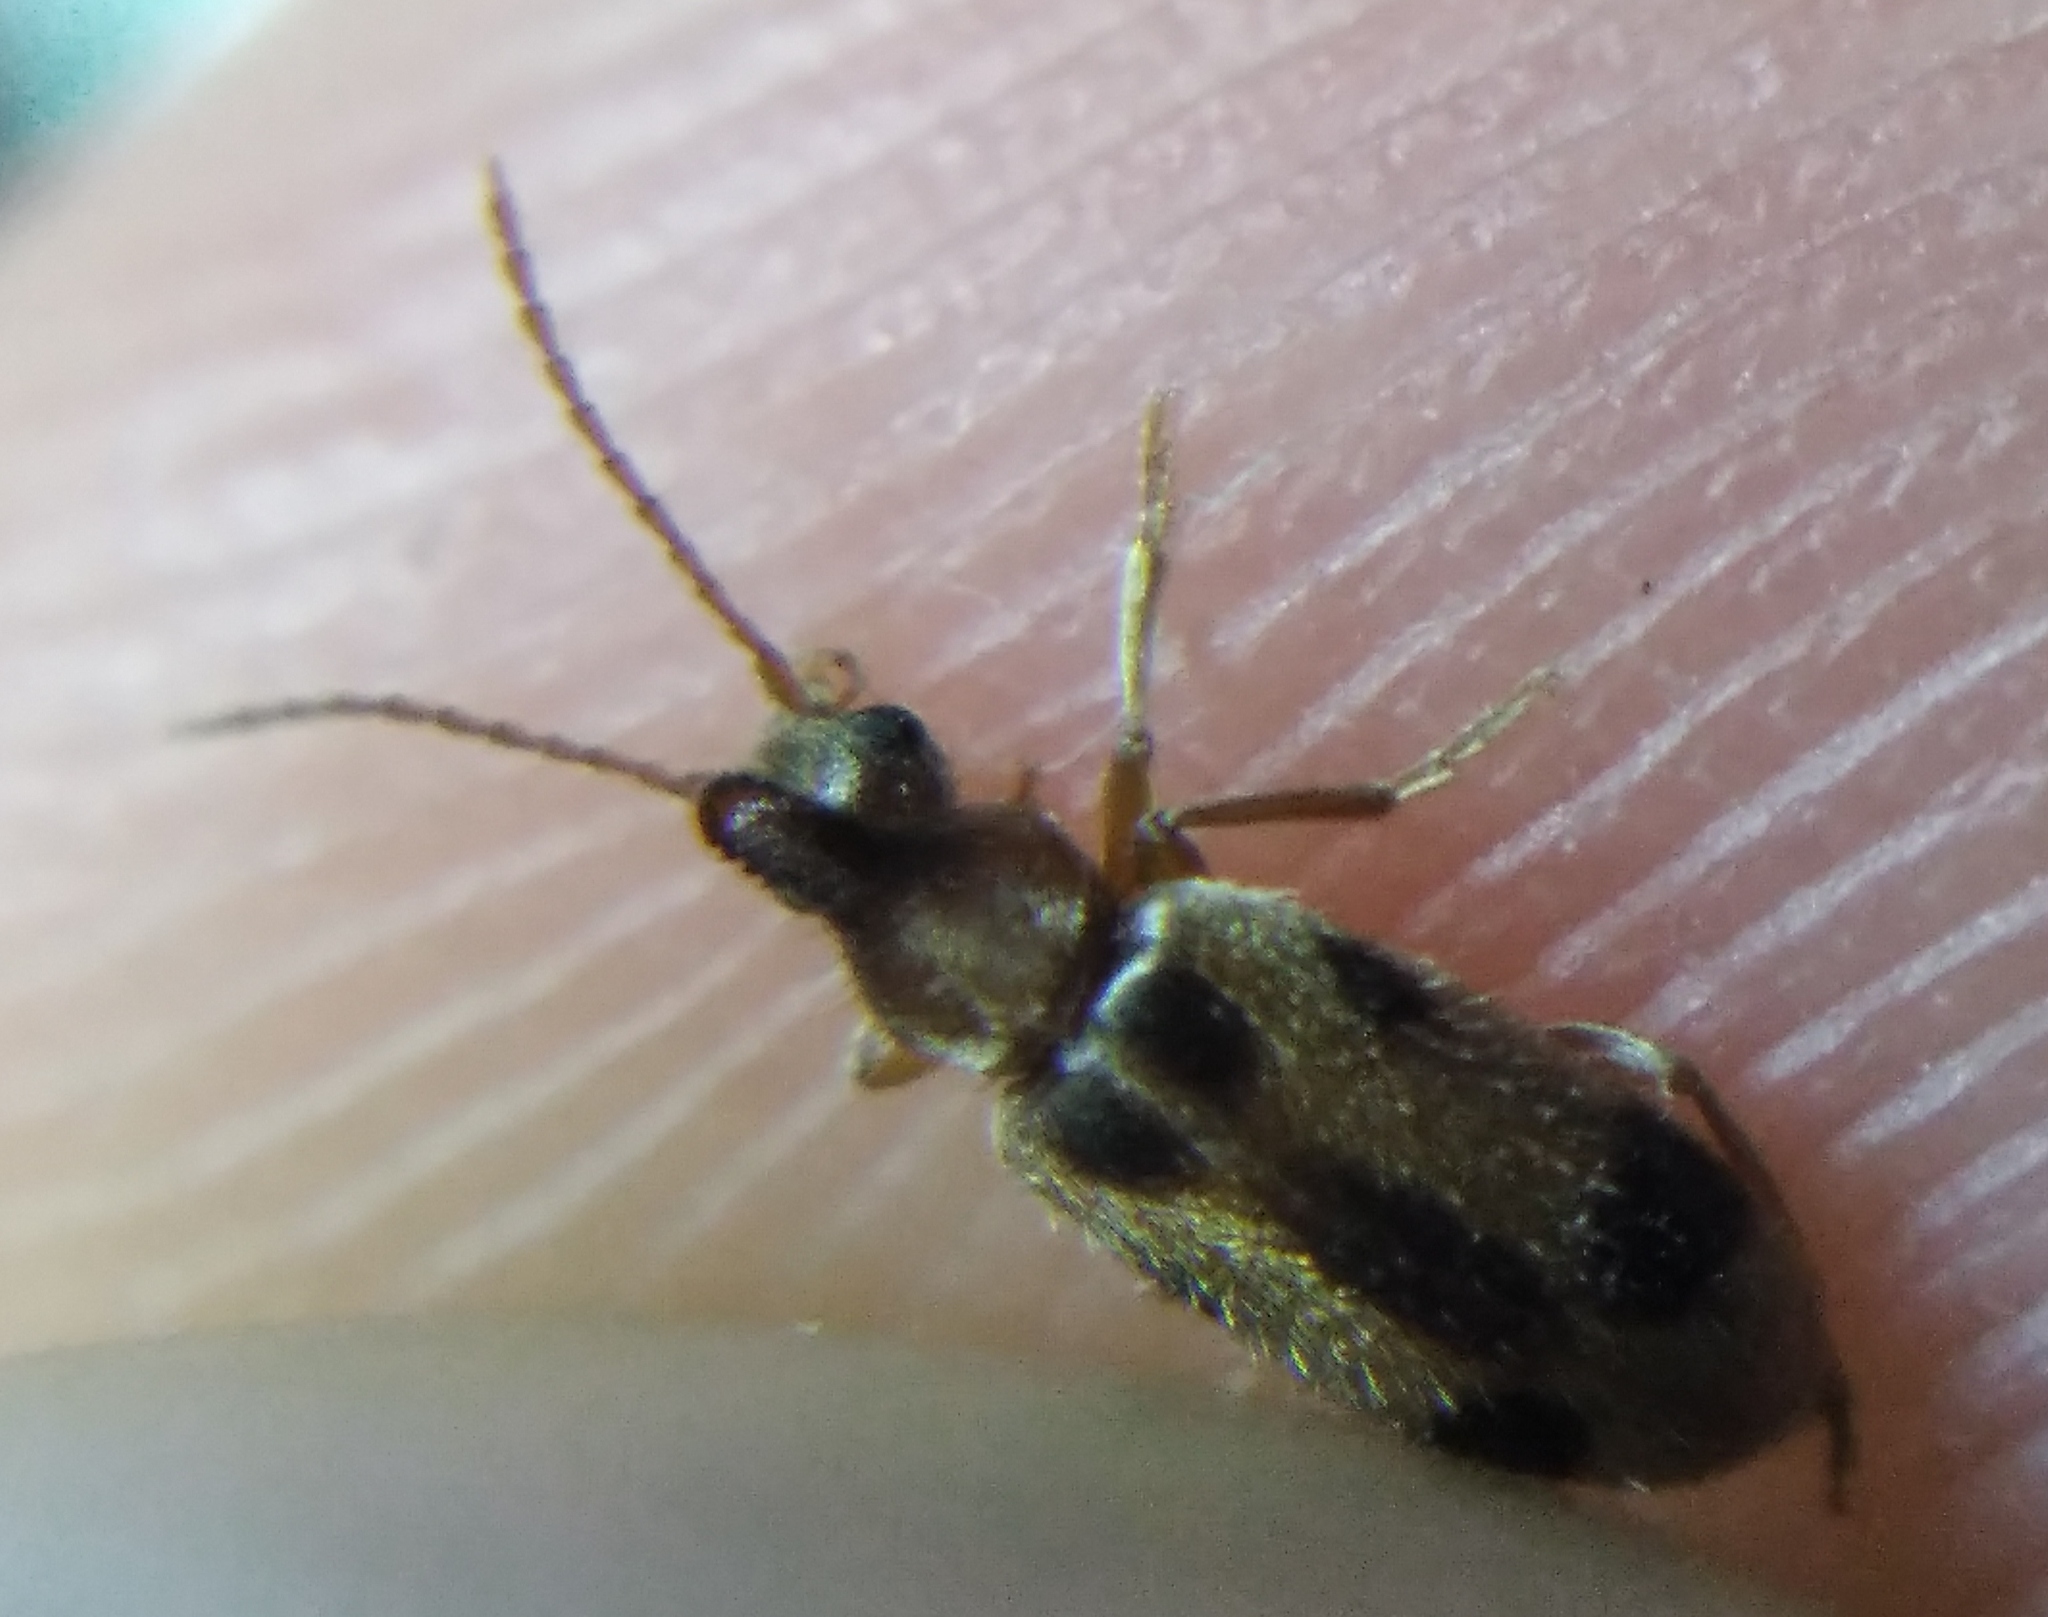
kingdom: Animalia
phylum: Arthropoda
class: Insecta
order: Coleoptera
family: Anthicidae
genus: Notoxus
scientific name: Notoxus monoceros
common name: Monoceros beetle
